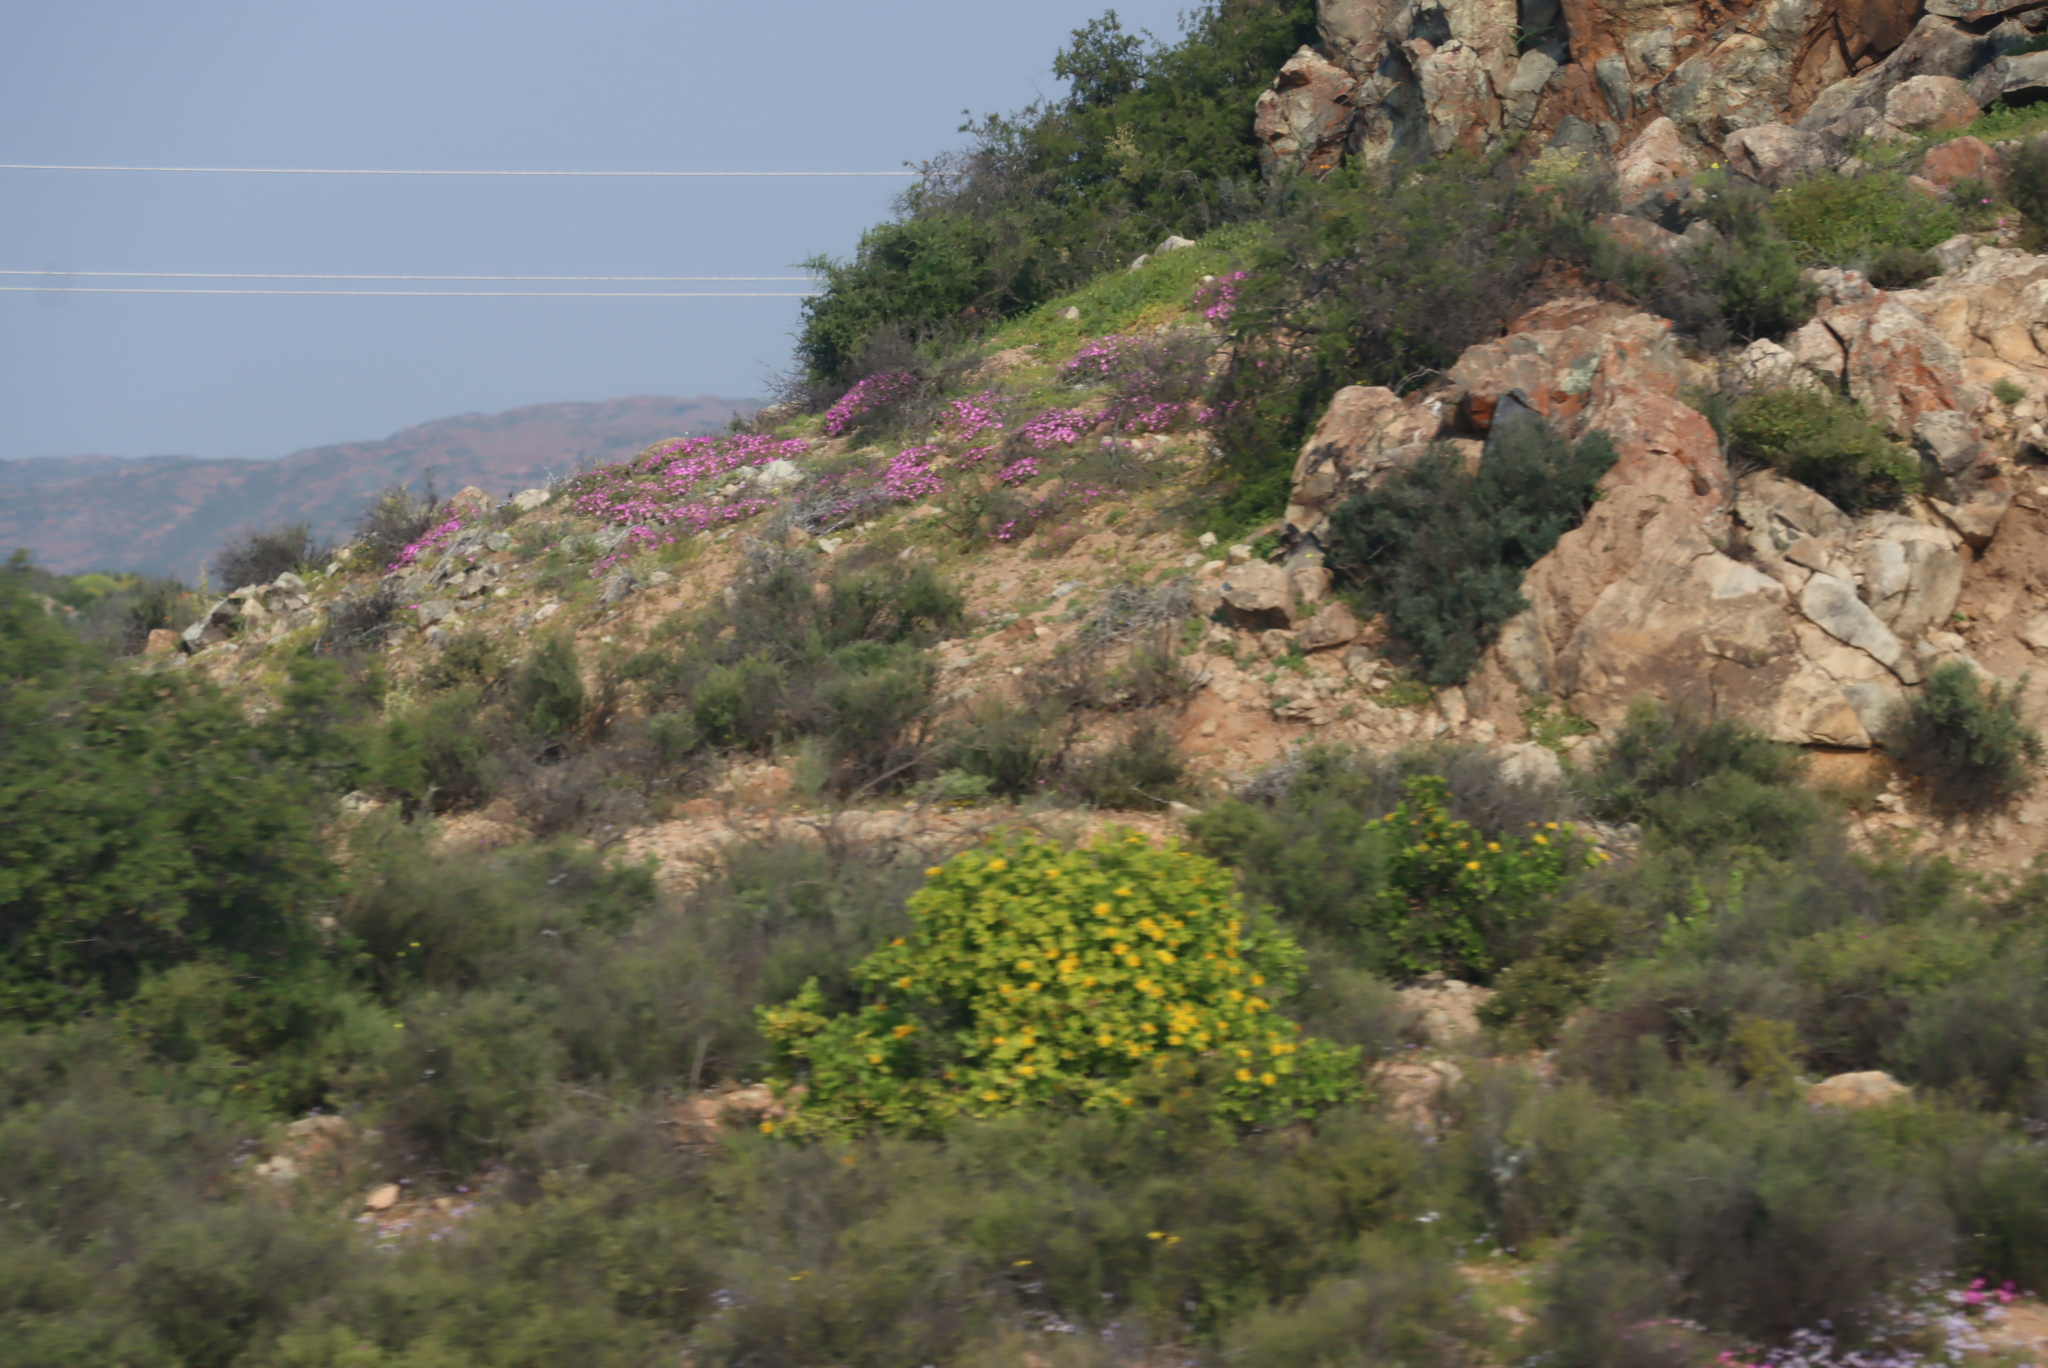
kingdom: Plantae
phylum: Tracheophyta
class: Magnoliopsida
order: Asterales
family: Asteraceae
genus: Didelta
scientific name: Didelta spinosa
